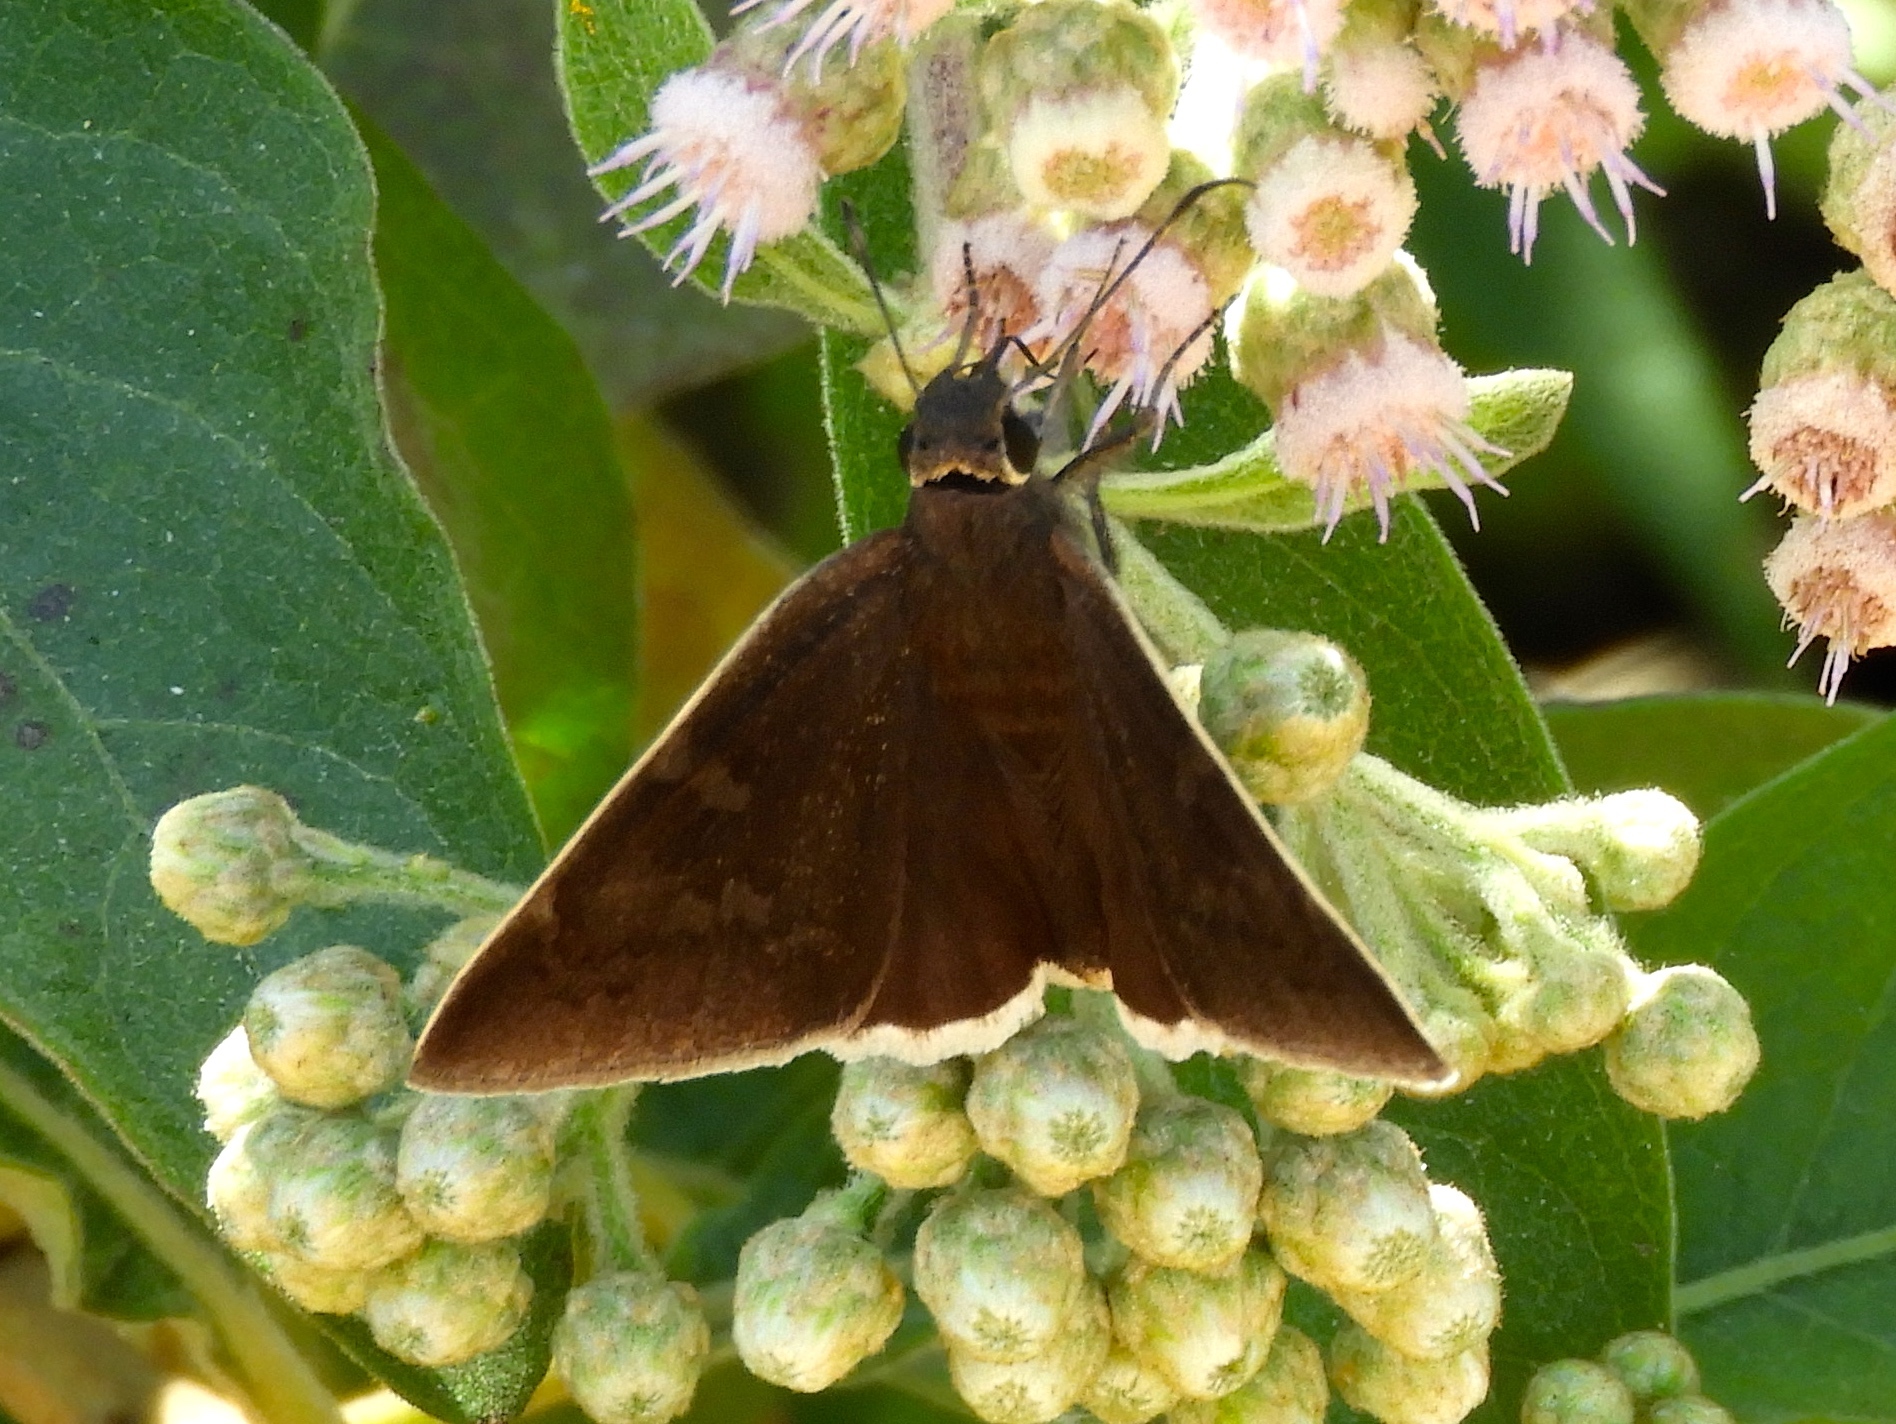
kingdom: Animalia
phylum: Arthropoda
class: Insecta
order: Lepidoptera
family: Hesperiidae
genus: Achalarus
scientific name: Achalarus Murgaria jalapus
